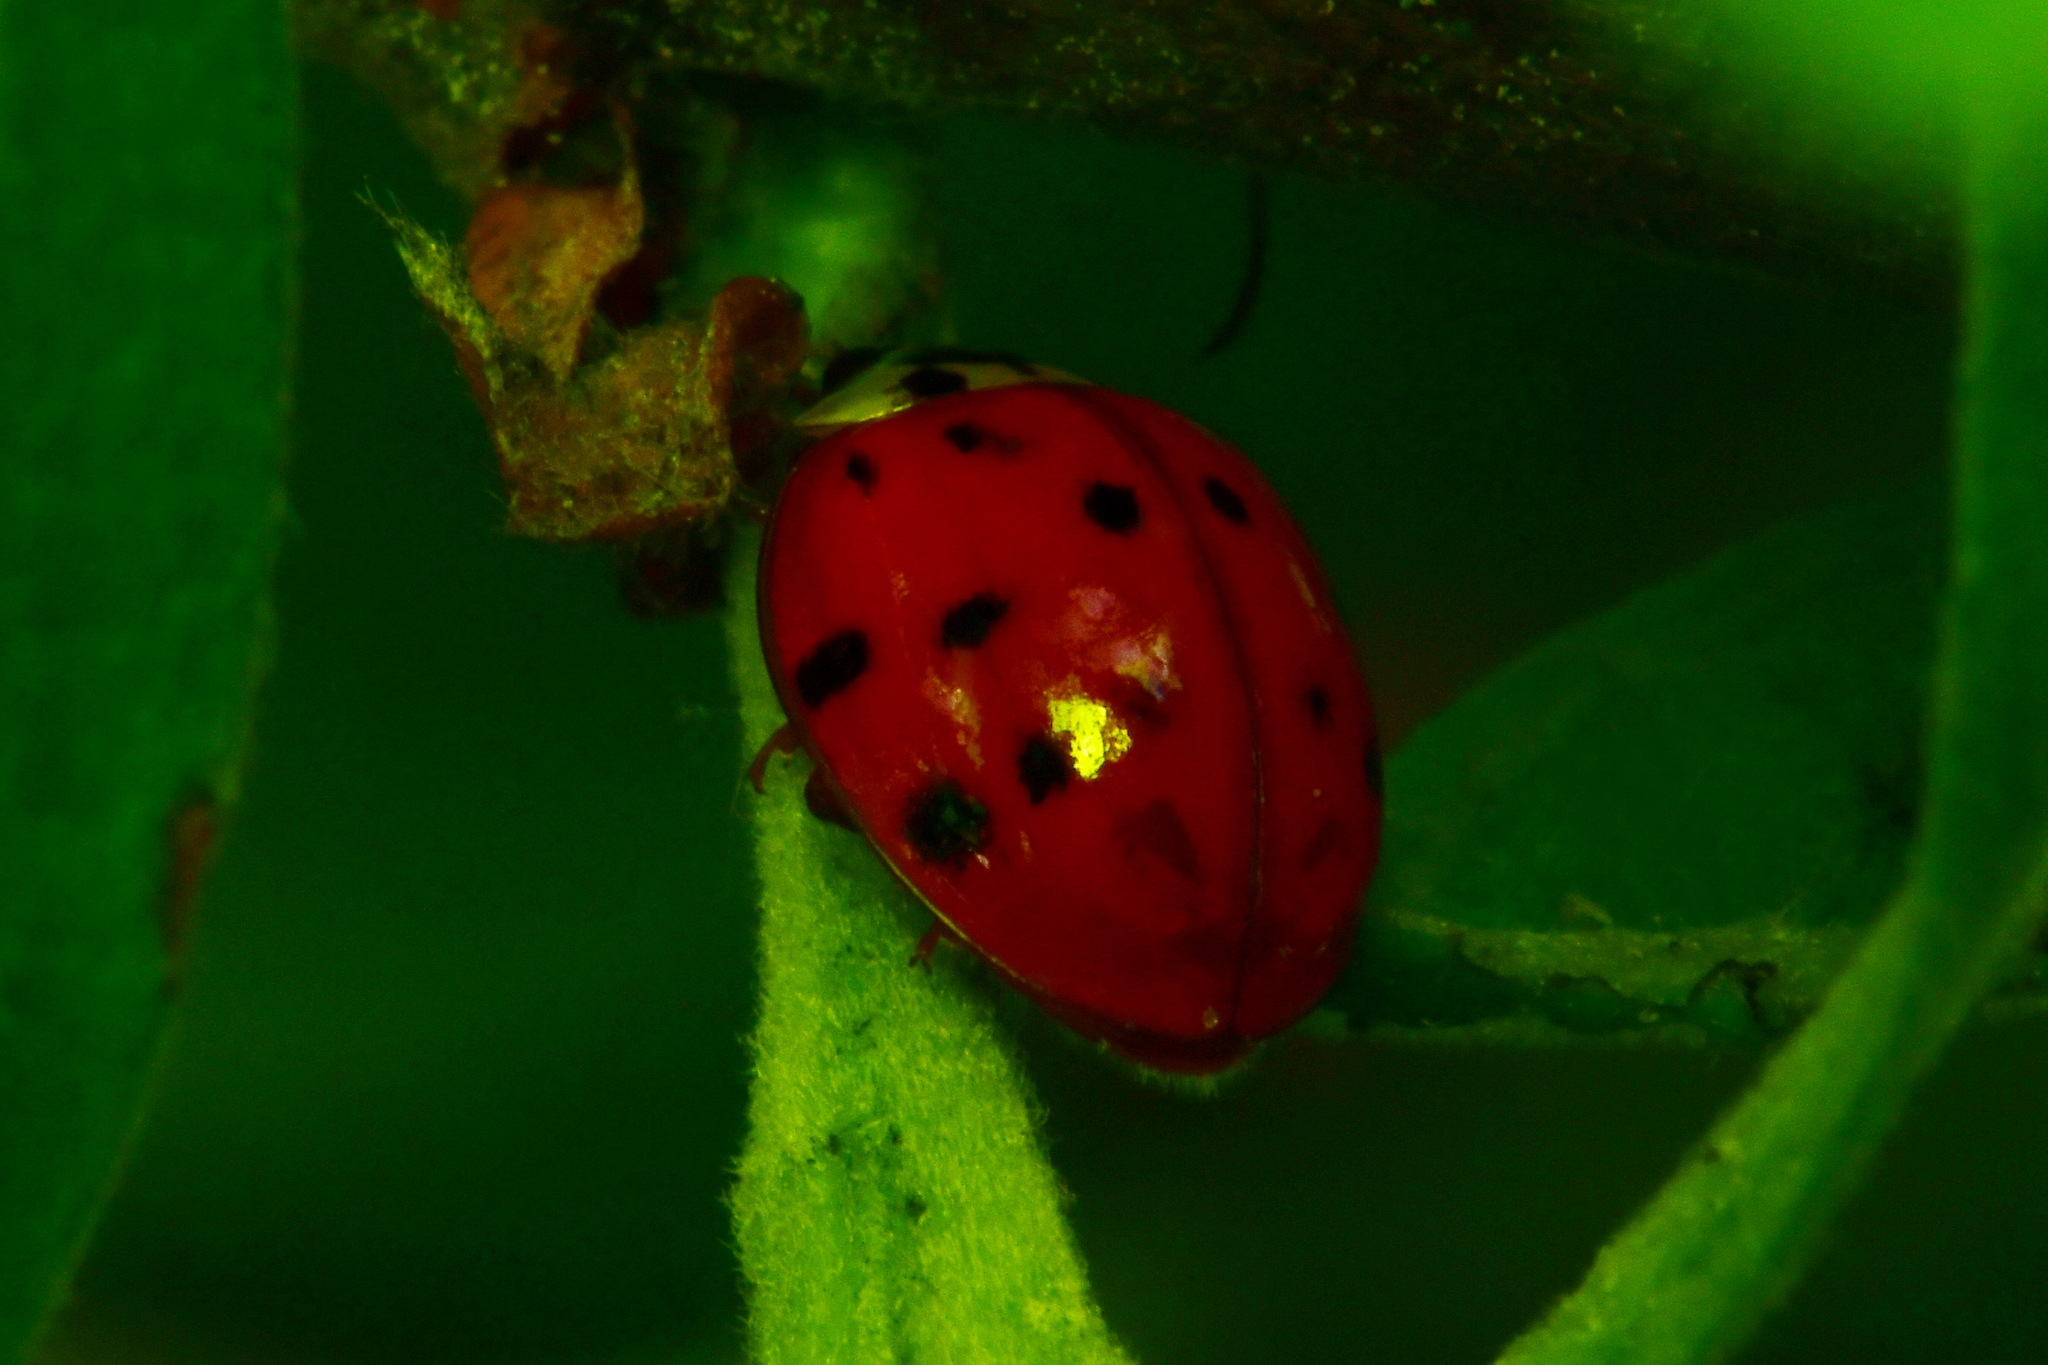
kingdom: Animalia
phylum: Arthropoda
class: Insecta
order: Coleoptera
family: Coccinellidae
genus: Harmonia
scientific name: Harmonia axyridis
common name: Harlequin ladybird
